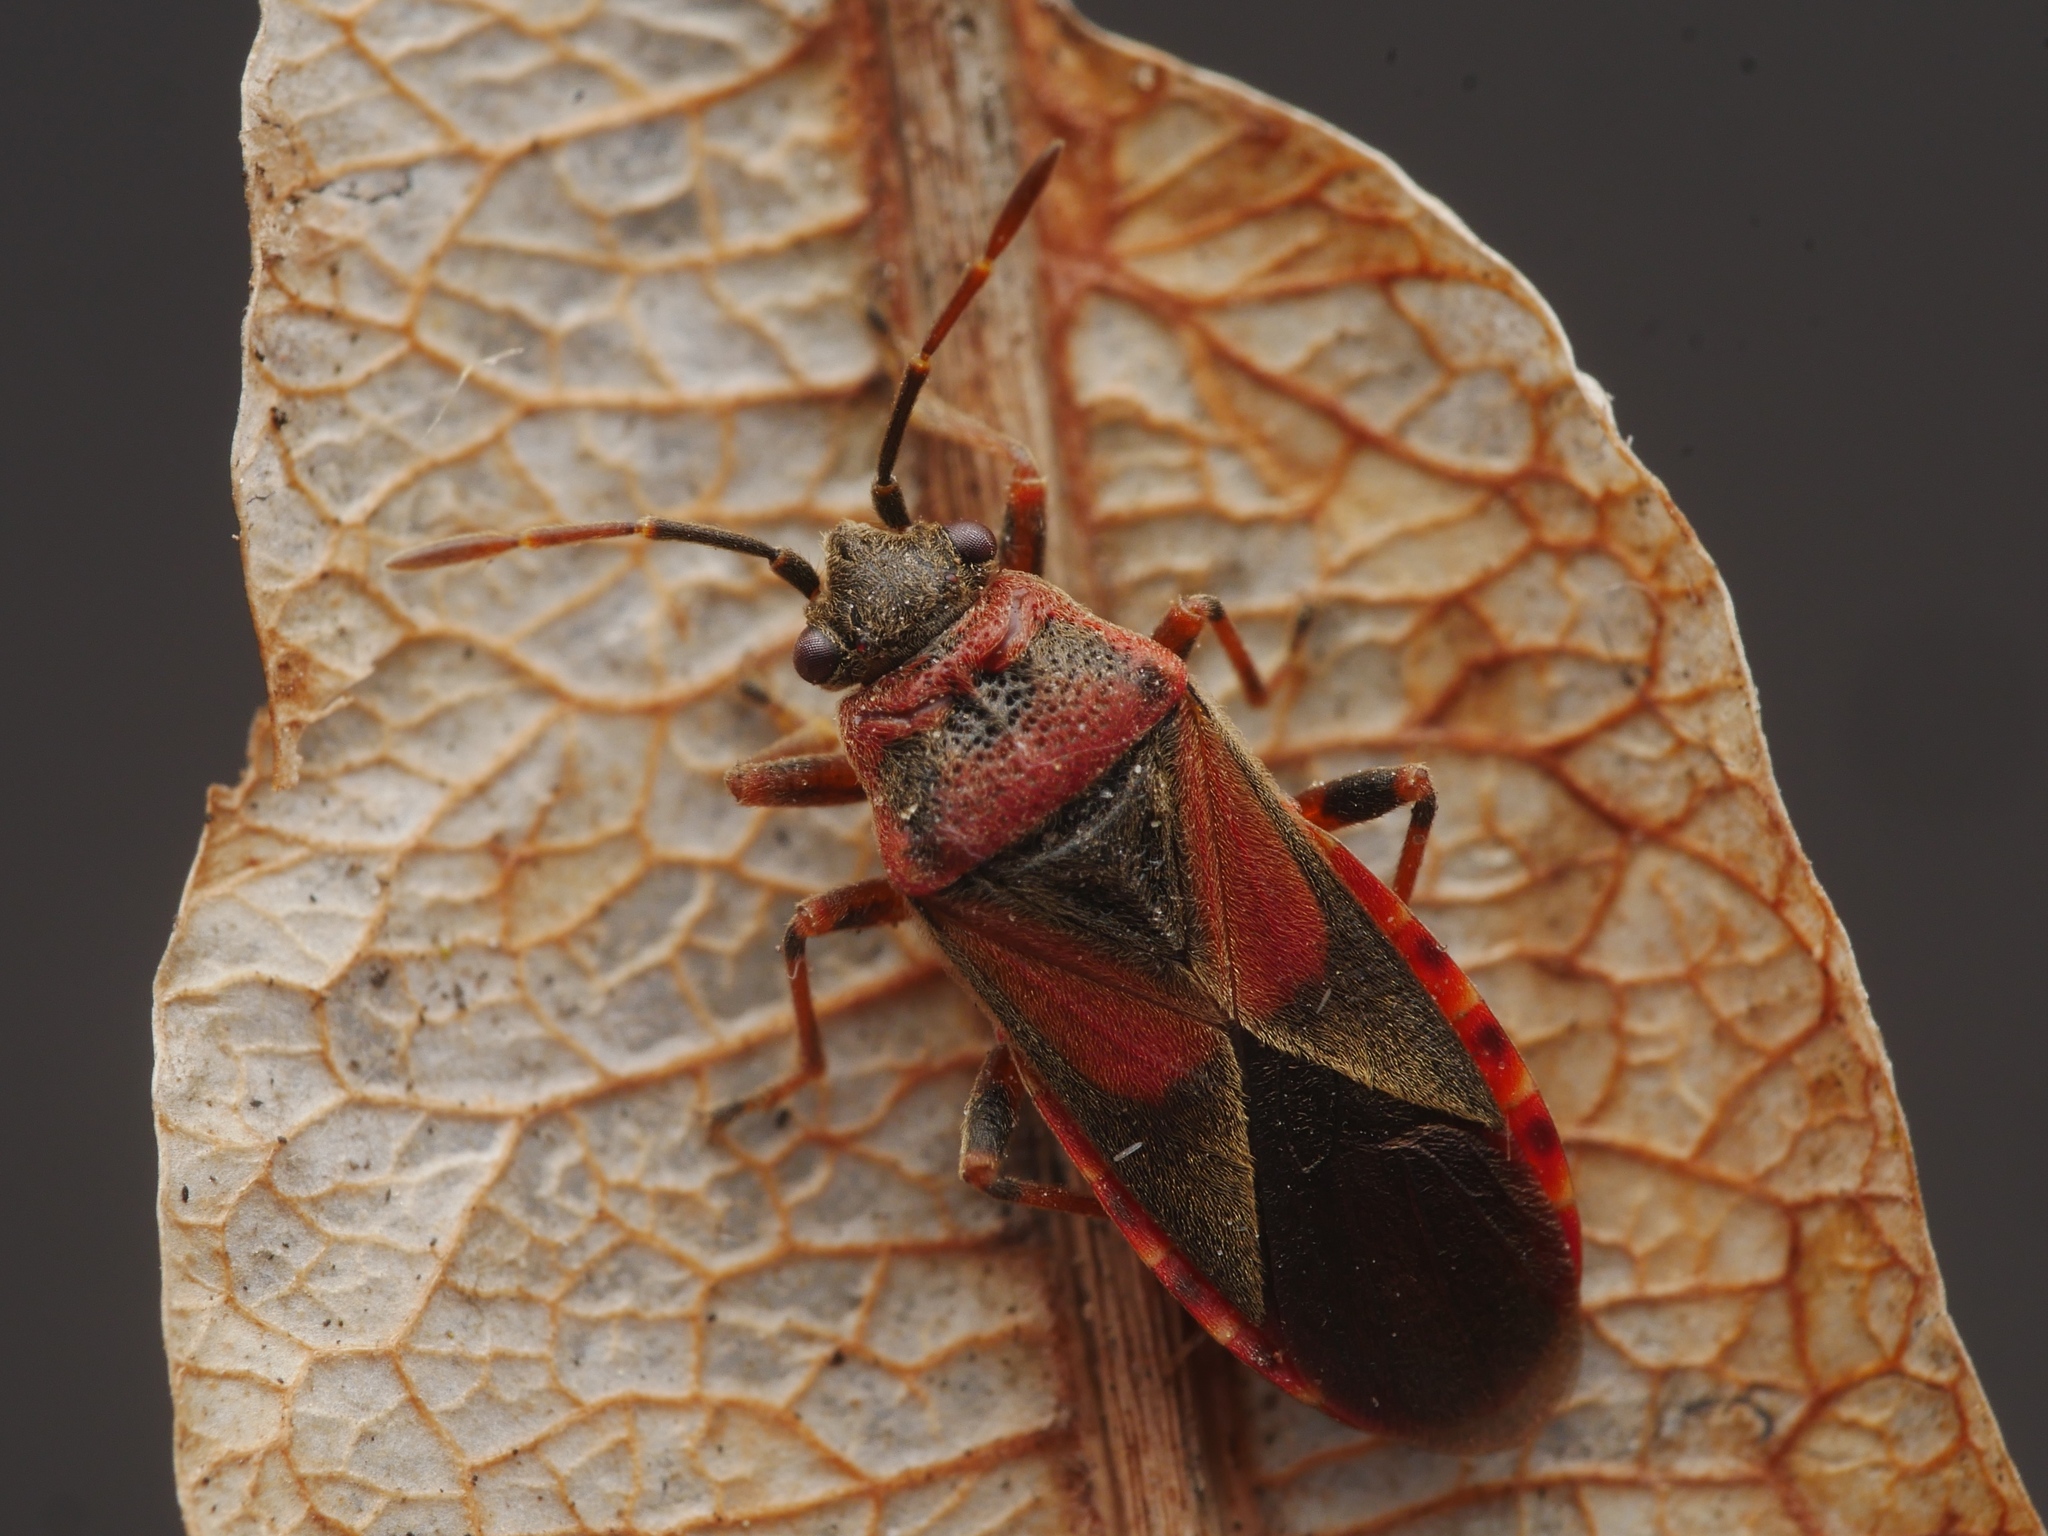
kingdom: Animalia
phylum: Arthropoda
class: Insecta
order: Hemiptera
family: Lygaeidae
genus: Arocatus
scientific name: Arocatus melanocephalus
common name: Lygaeid bug
